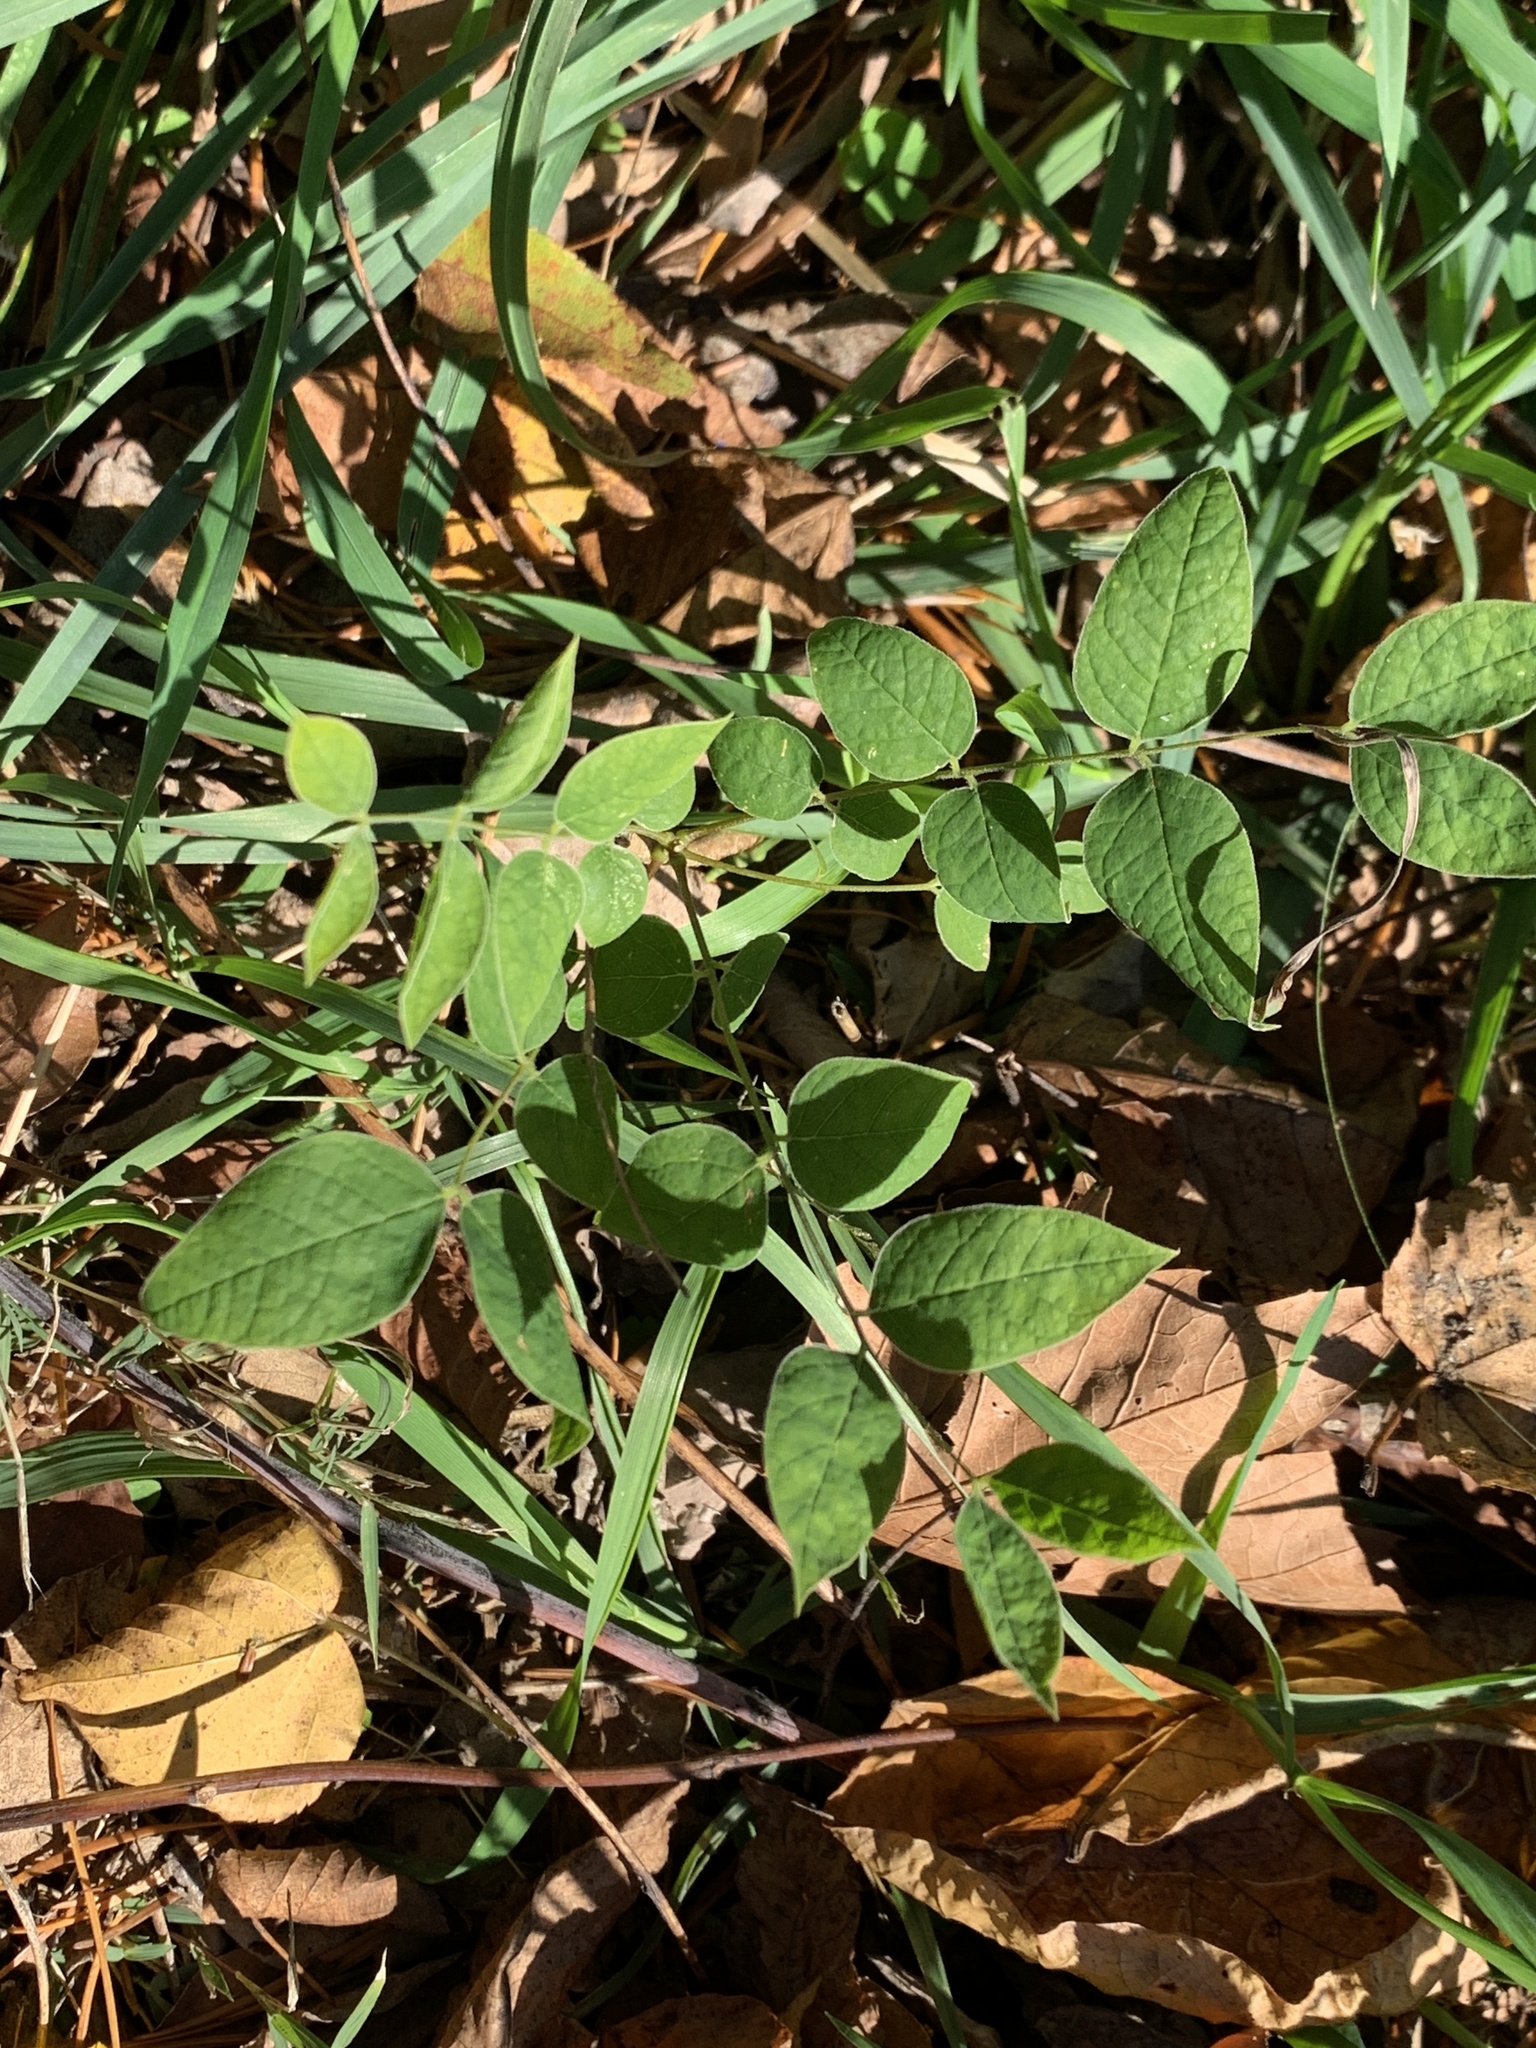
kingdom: Plantae
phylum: Tracheophyta
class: Magnoliopsida
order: Fabales
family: Fabaceae
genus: Gymnocladus
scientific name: Gymnocladus dioicus
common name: Kentucky coffee-tree
